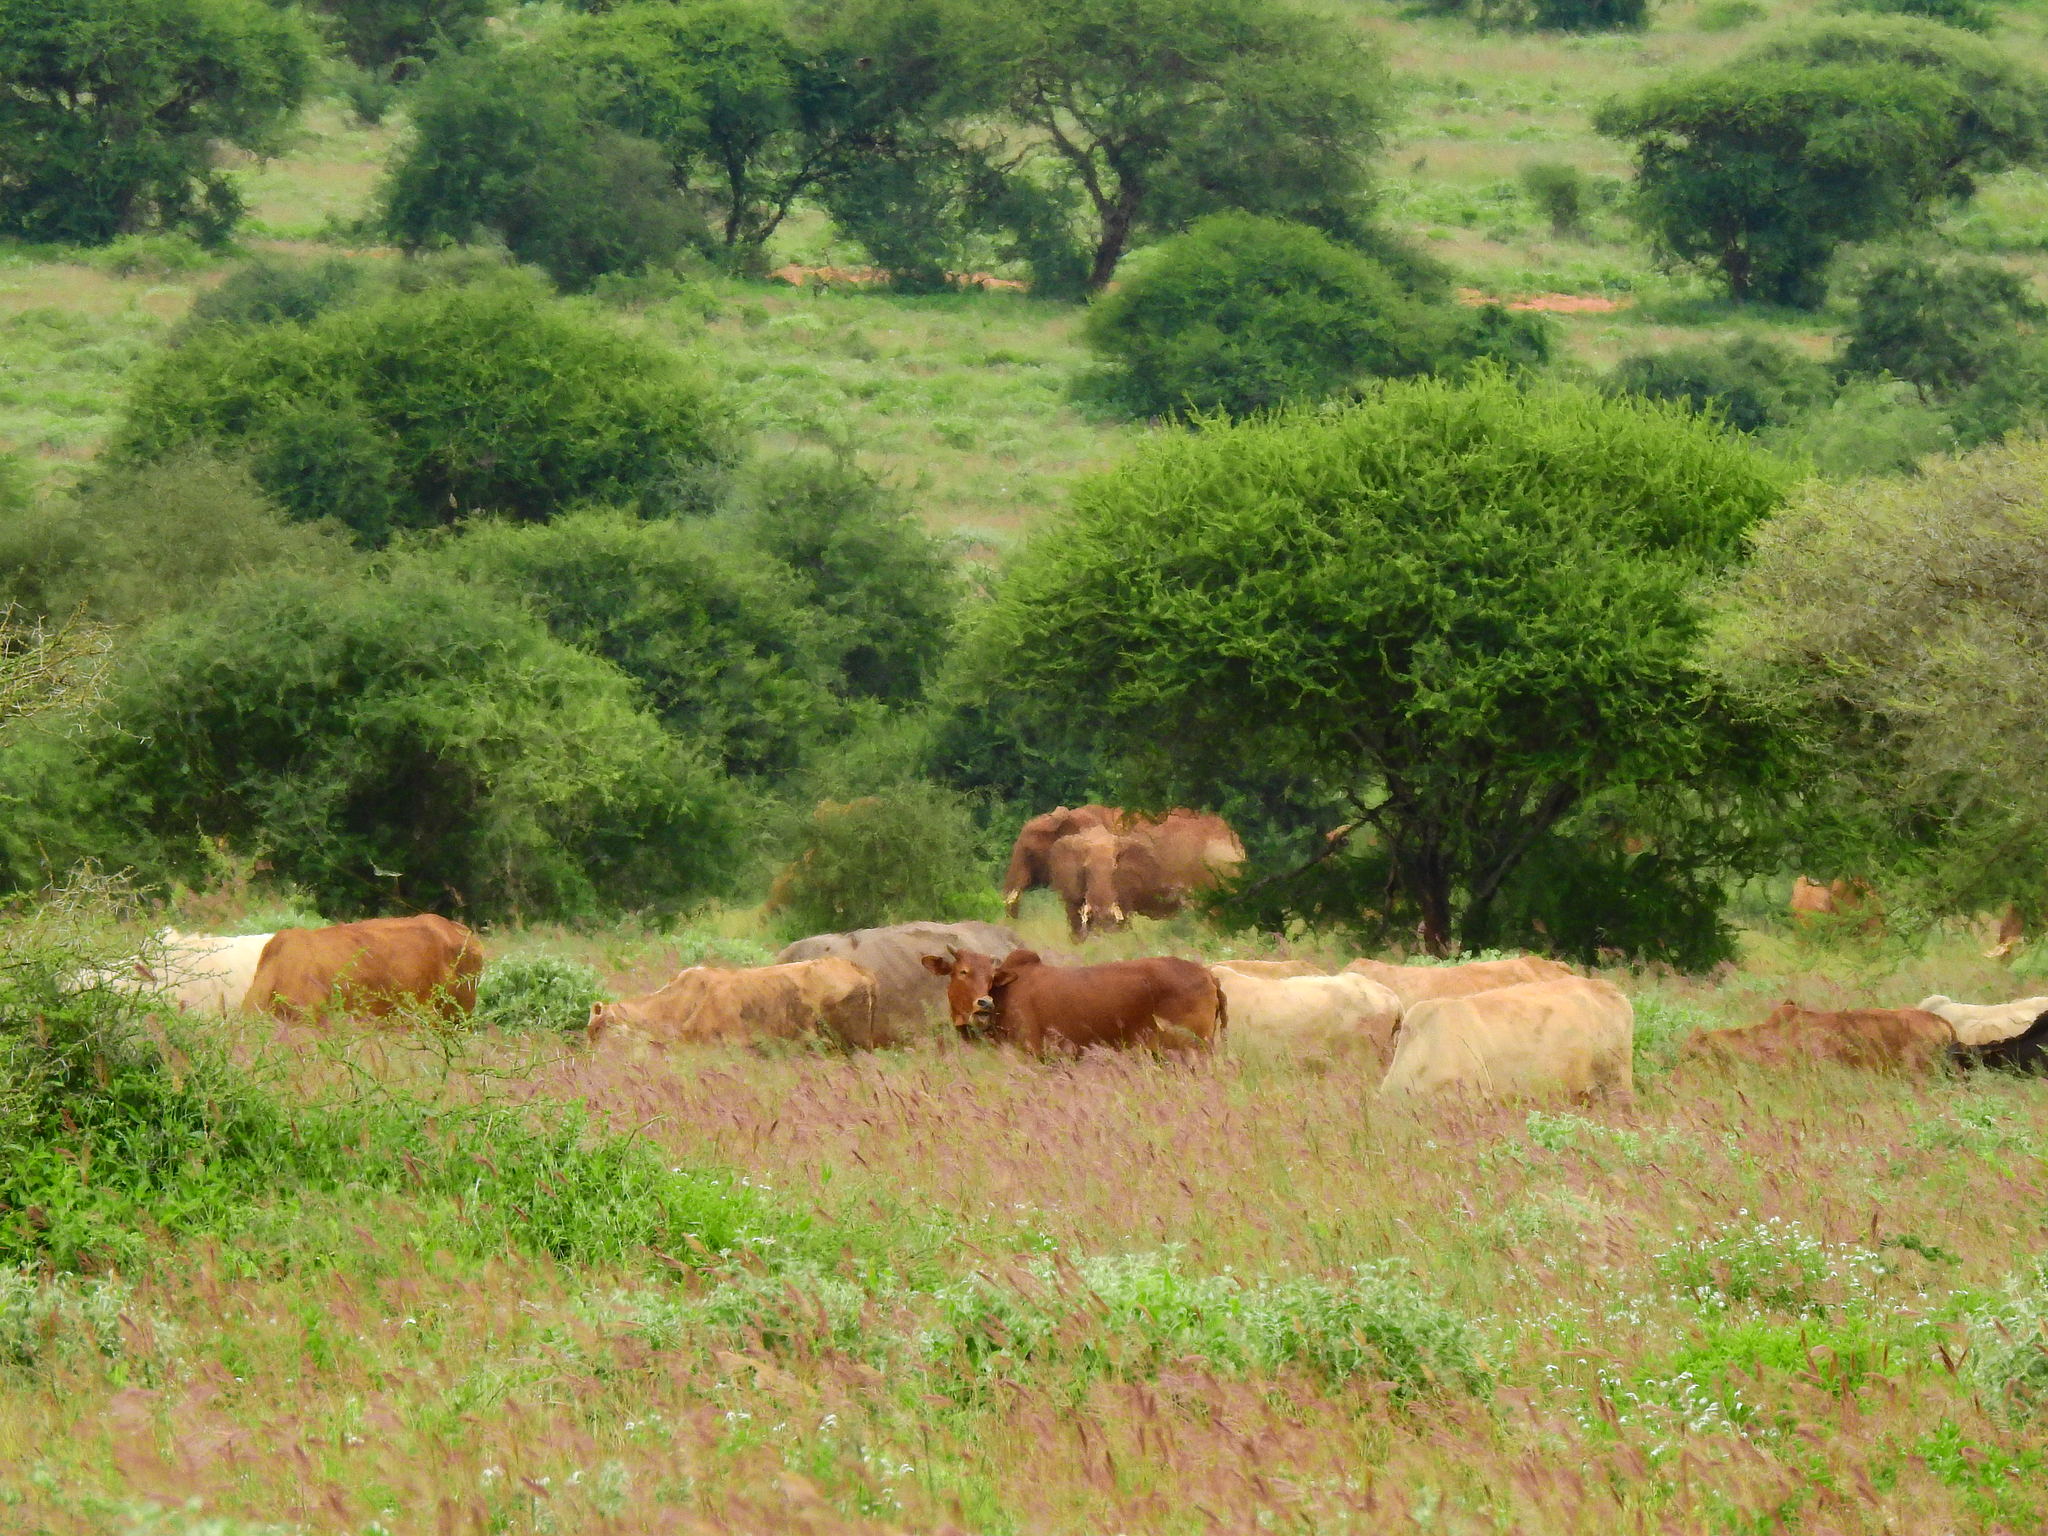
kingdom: Animalia
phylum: Chordata
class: Mammalia
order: Proboscidea
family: Elephantidae
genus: Loxodonta
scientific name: Loxodonta africana
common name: African elephant
